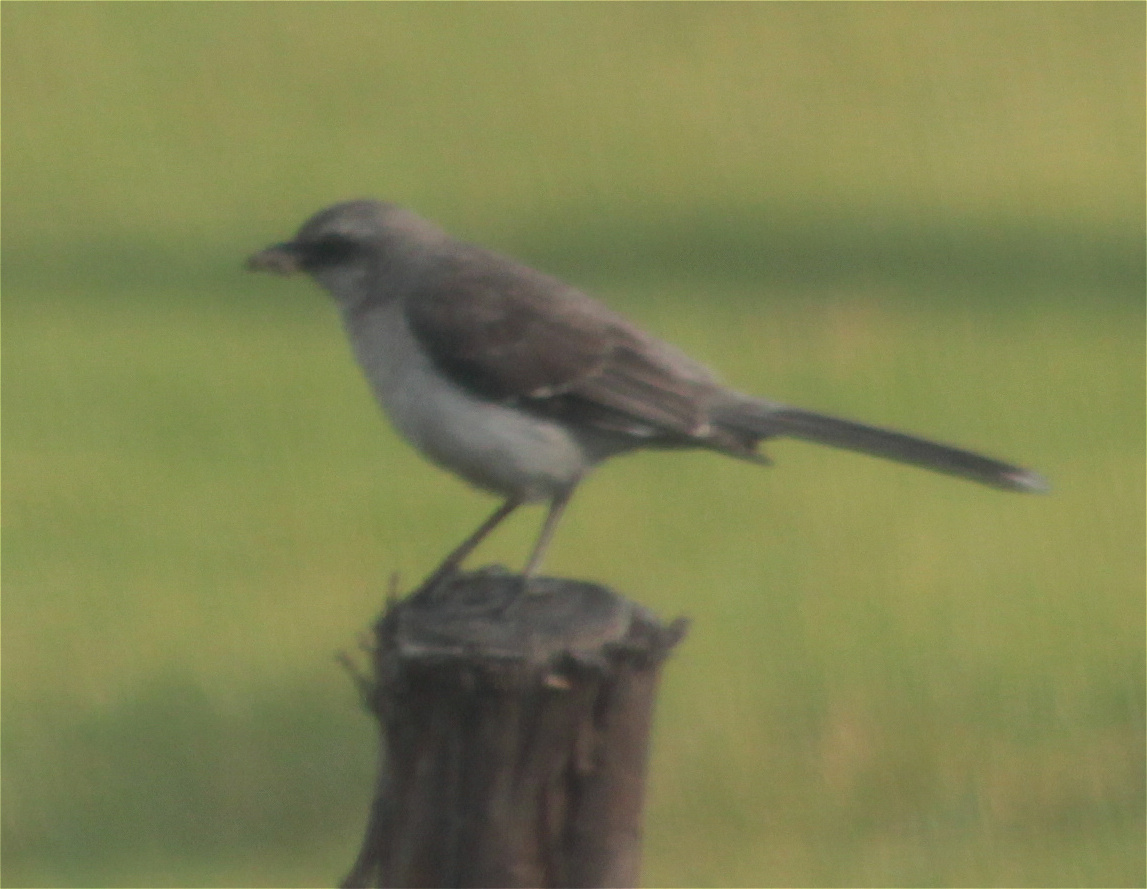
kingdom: Animalia
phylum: Chordata
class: Aves
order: Passeriformes
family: Mimidae
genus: Mimus
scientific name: Mimus gilvus
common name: Tropical mockingbird
